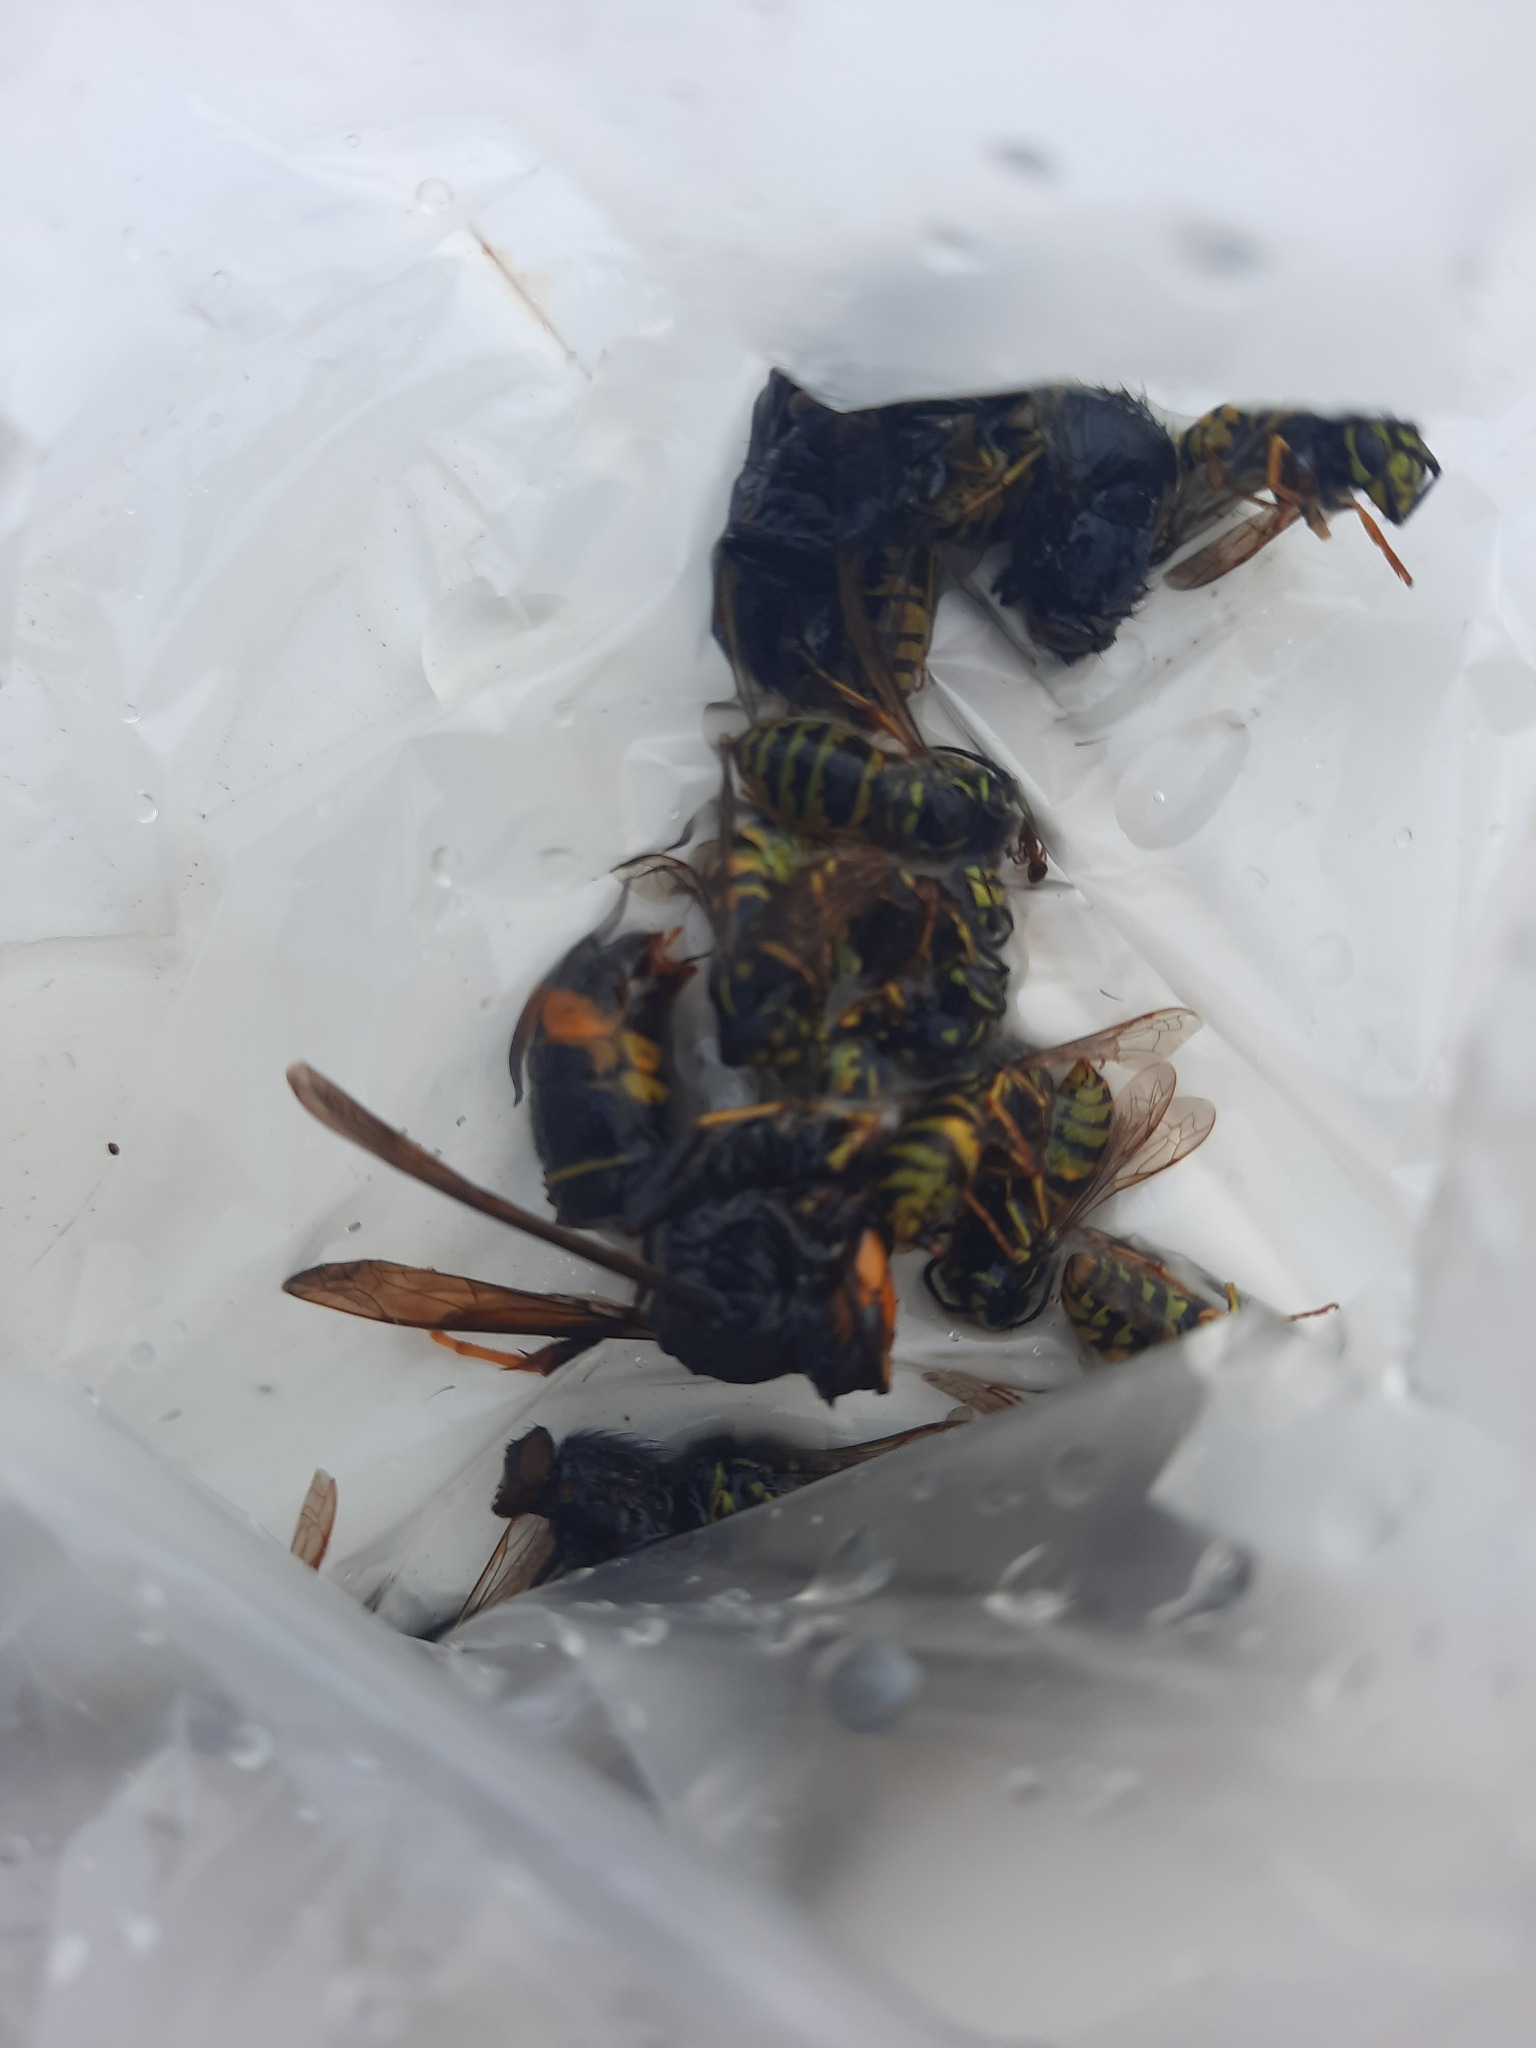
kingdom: Animalia
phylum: Arthropoda
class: Insecta
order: Hymenoptera
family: Vespidae
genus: Vespa
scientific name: Vespa velutina
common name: Asian hornet
